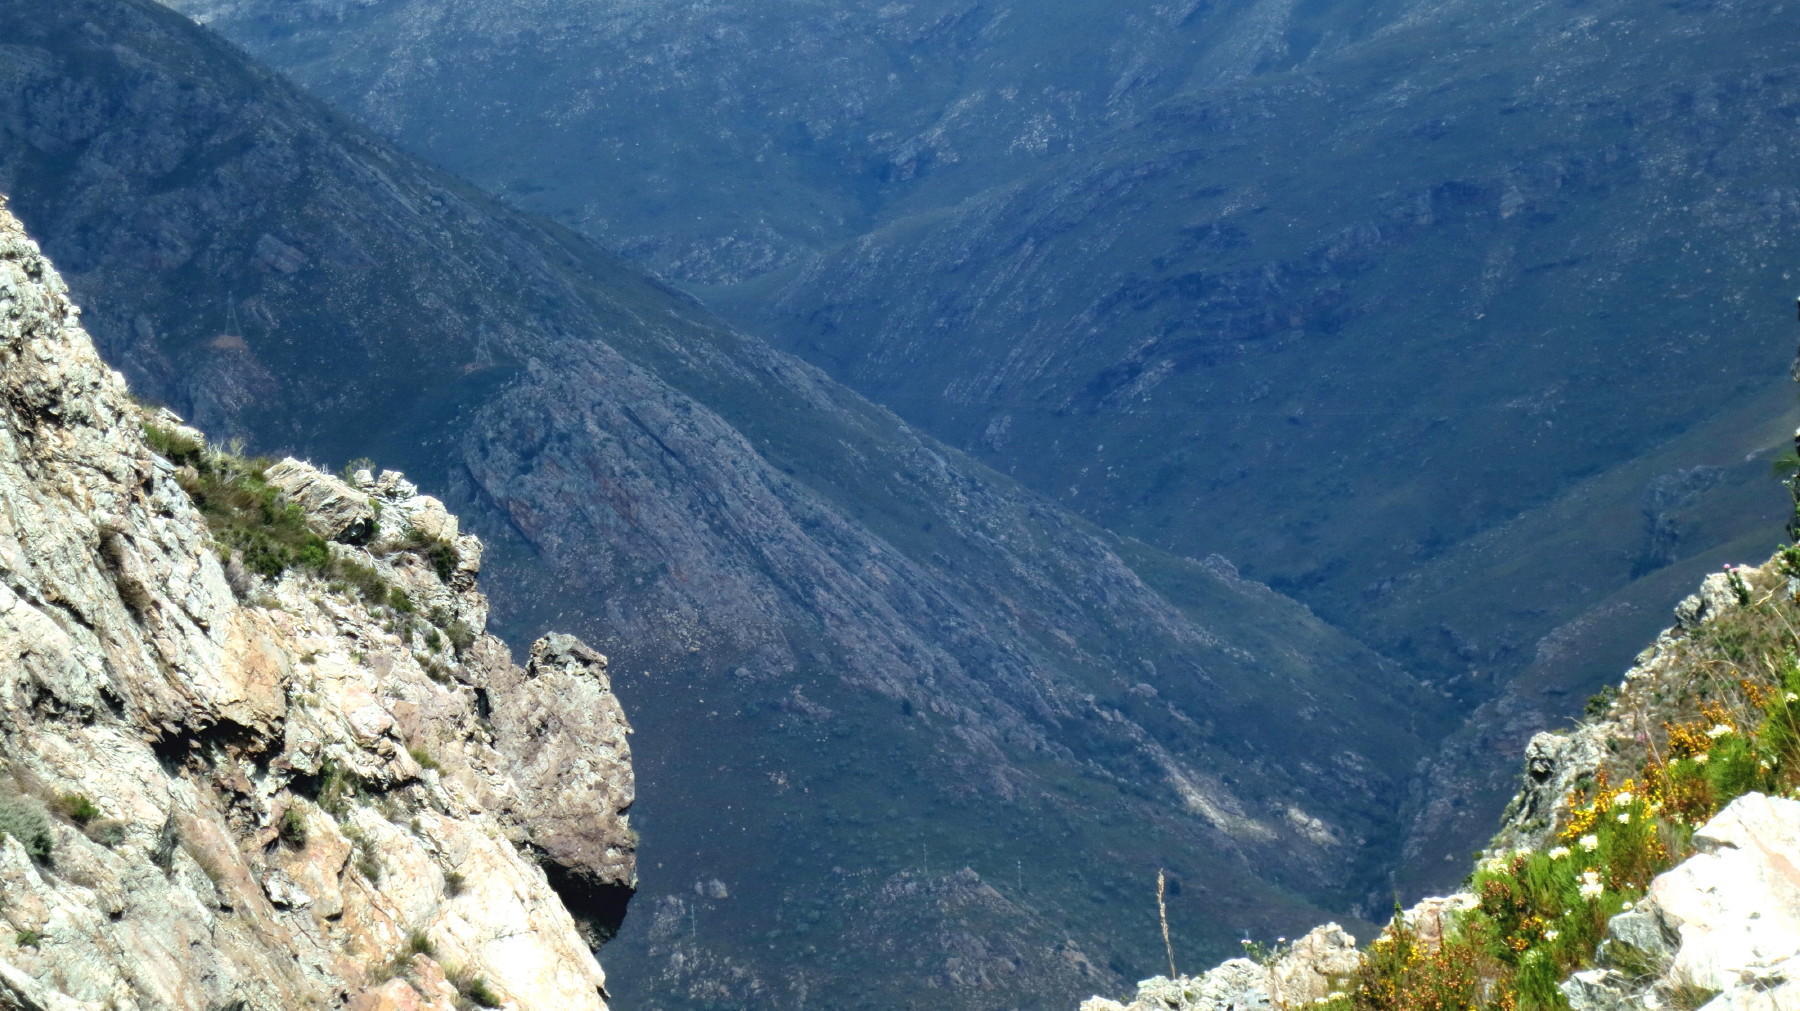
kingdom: Plantae
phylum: Tracheophyta
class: Magnoliopsida
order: Bruniales
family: Bruniaceae
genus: Berzelia
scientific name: Berzelia lanuginosa
